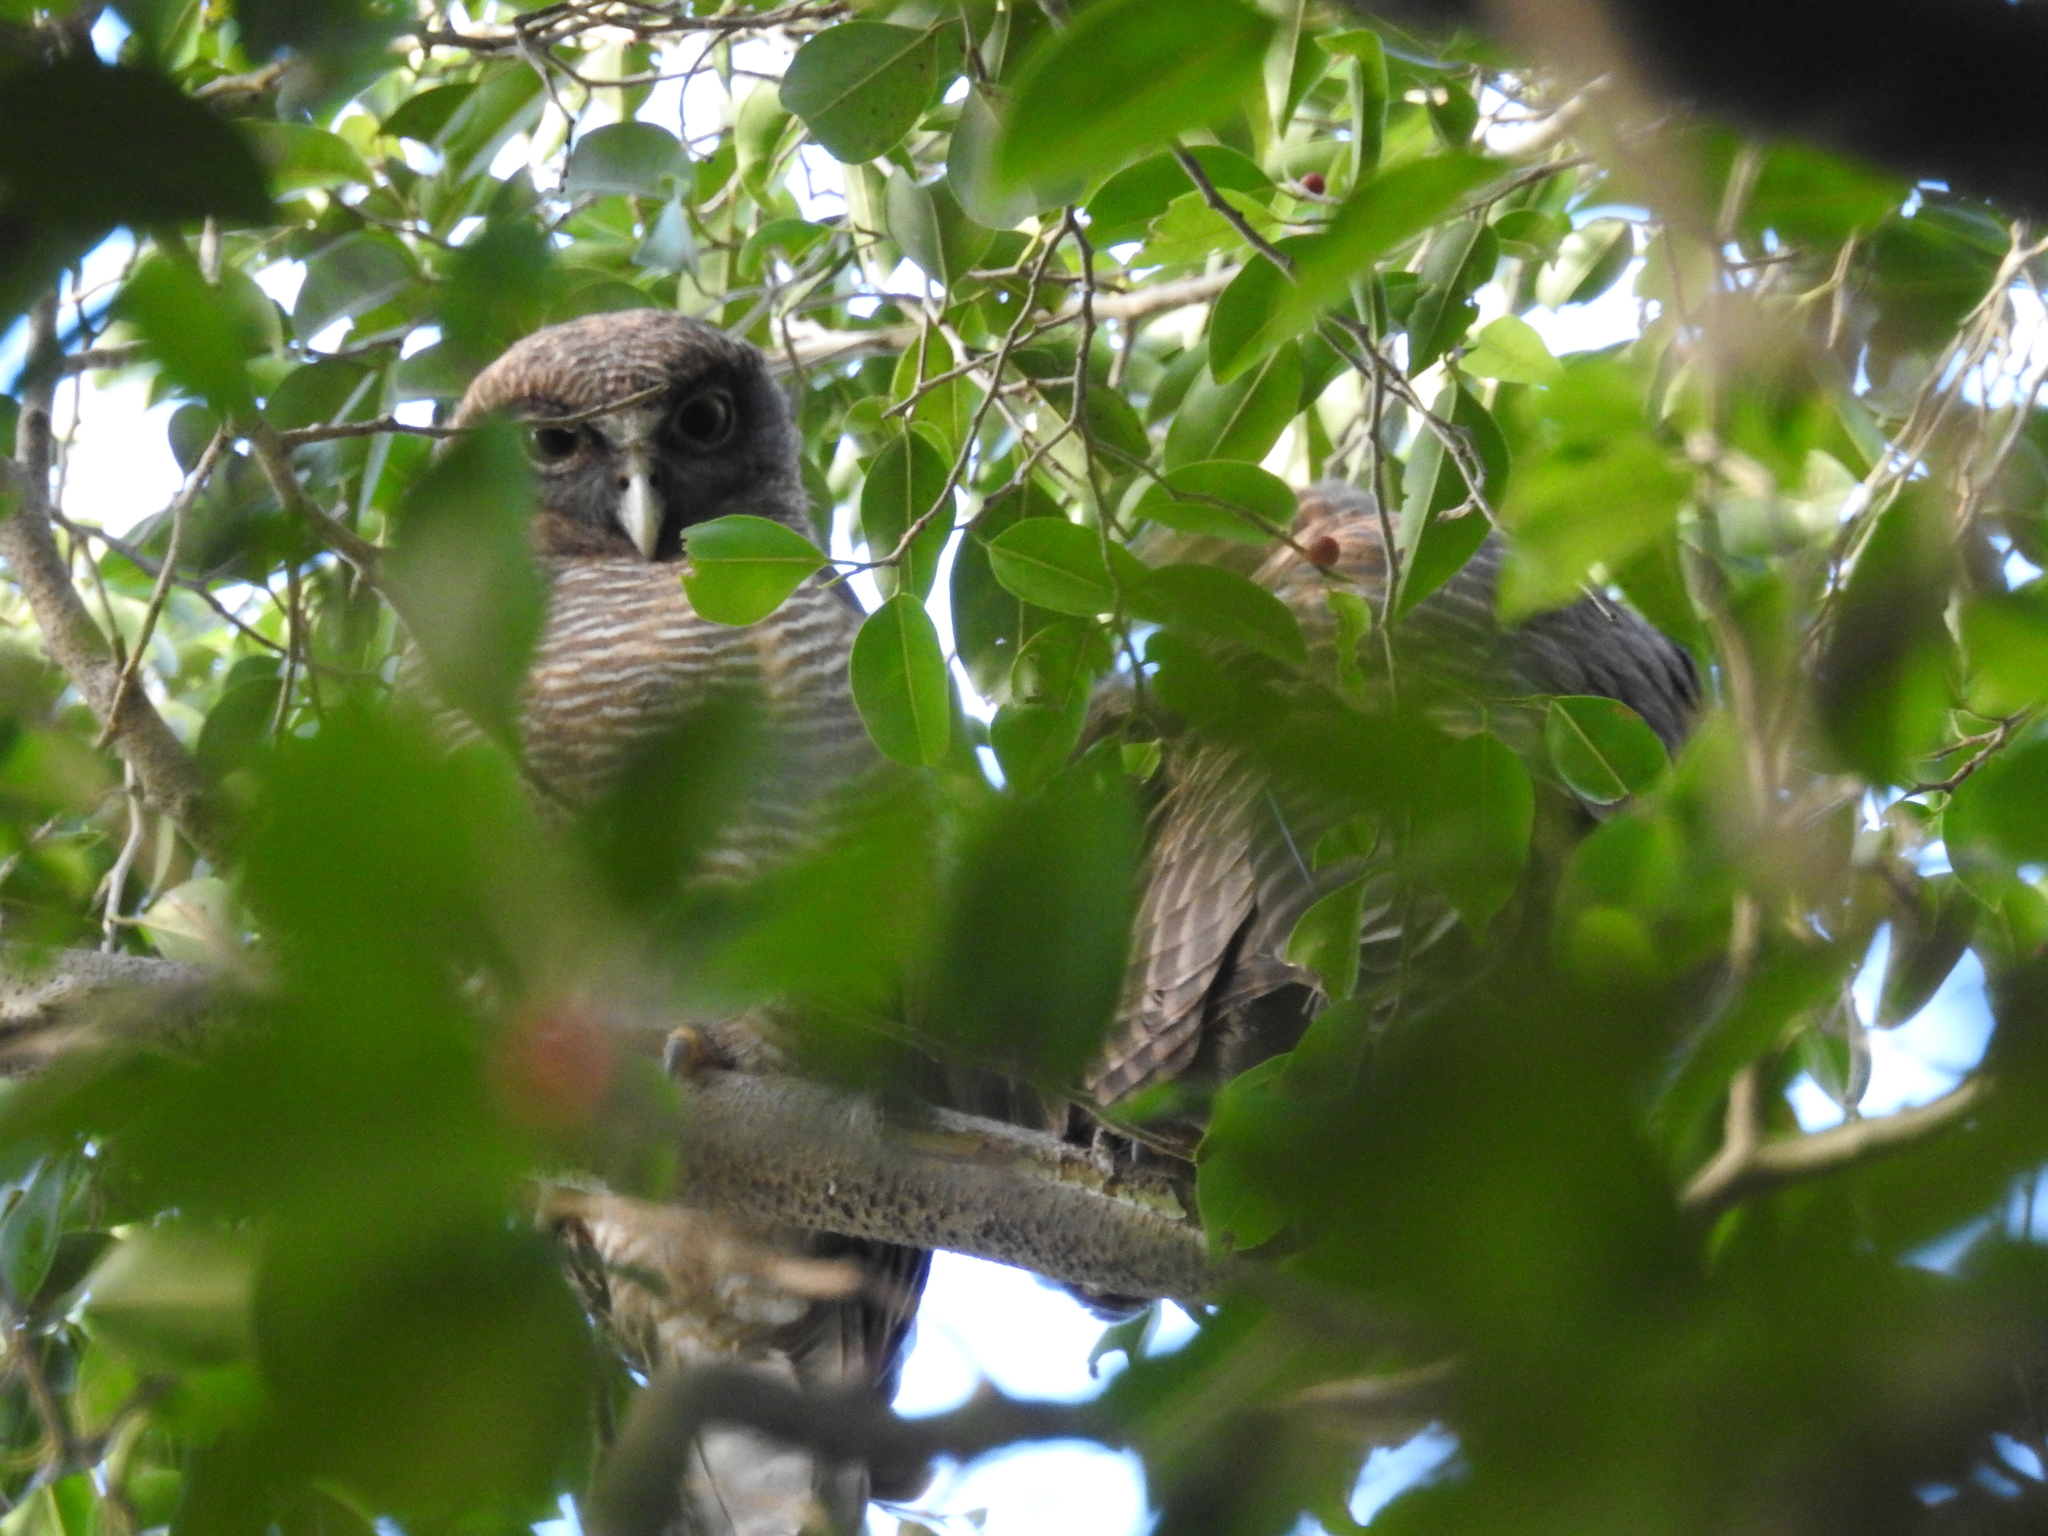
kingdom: Animalia
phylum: Chordata
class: Aves
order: Strigiformes
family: Strigidae
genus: Ninox
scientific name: Ninox rufa
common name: Rufous owl
